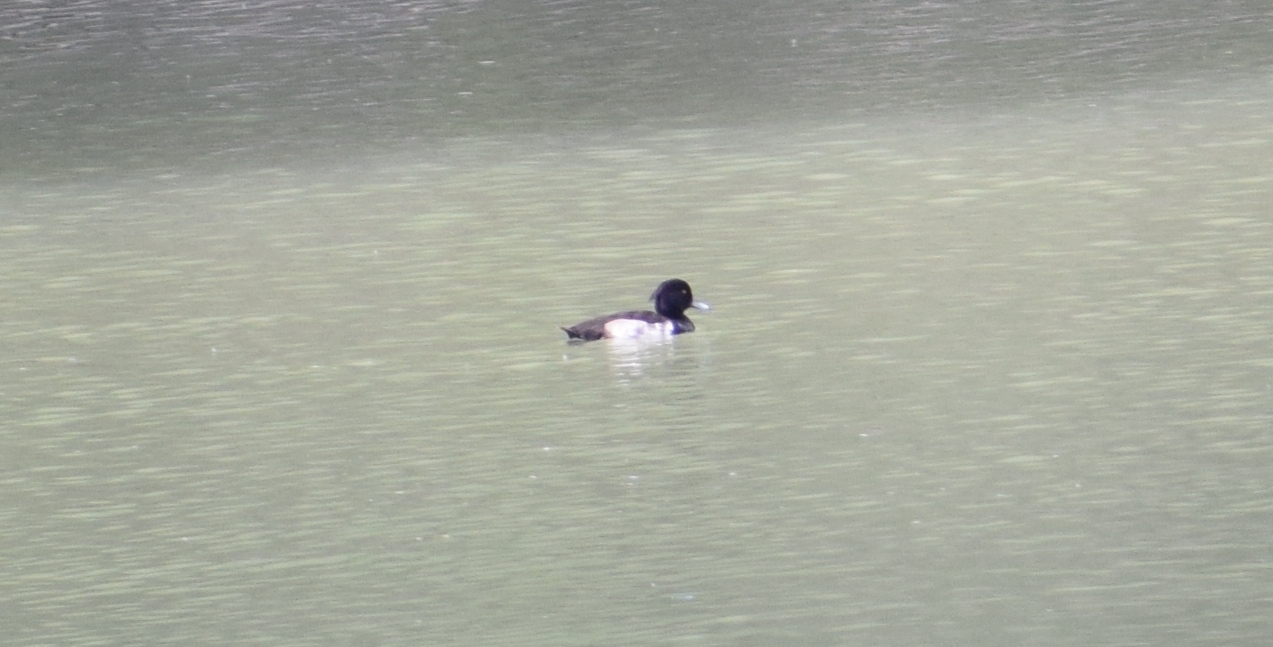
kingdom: Animalia
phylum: Chordata
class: Aves
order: Anseriformes
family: Anatidae
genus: Aythya
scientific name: Aythya fuligula
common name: Tufted duck
